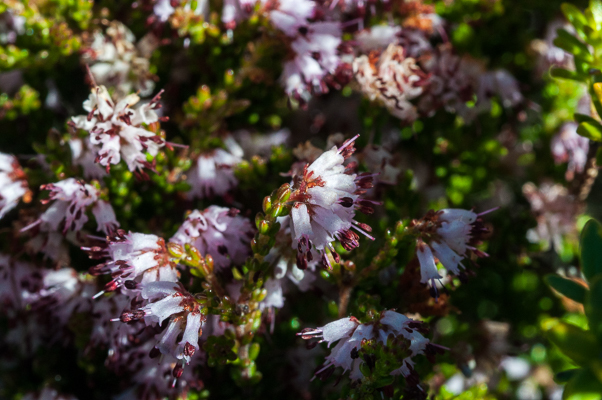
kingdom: Plantae
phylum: Tracheophyta
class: Magnoliopsida
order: Ericales
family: Ericaceae
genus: Erica
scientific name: Erica ericoides
